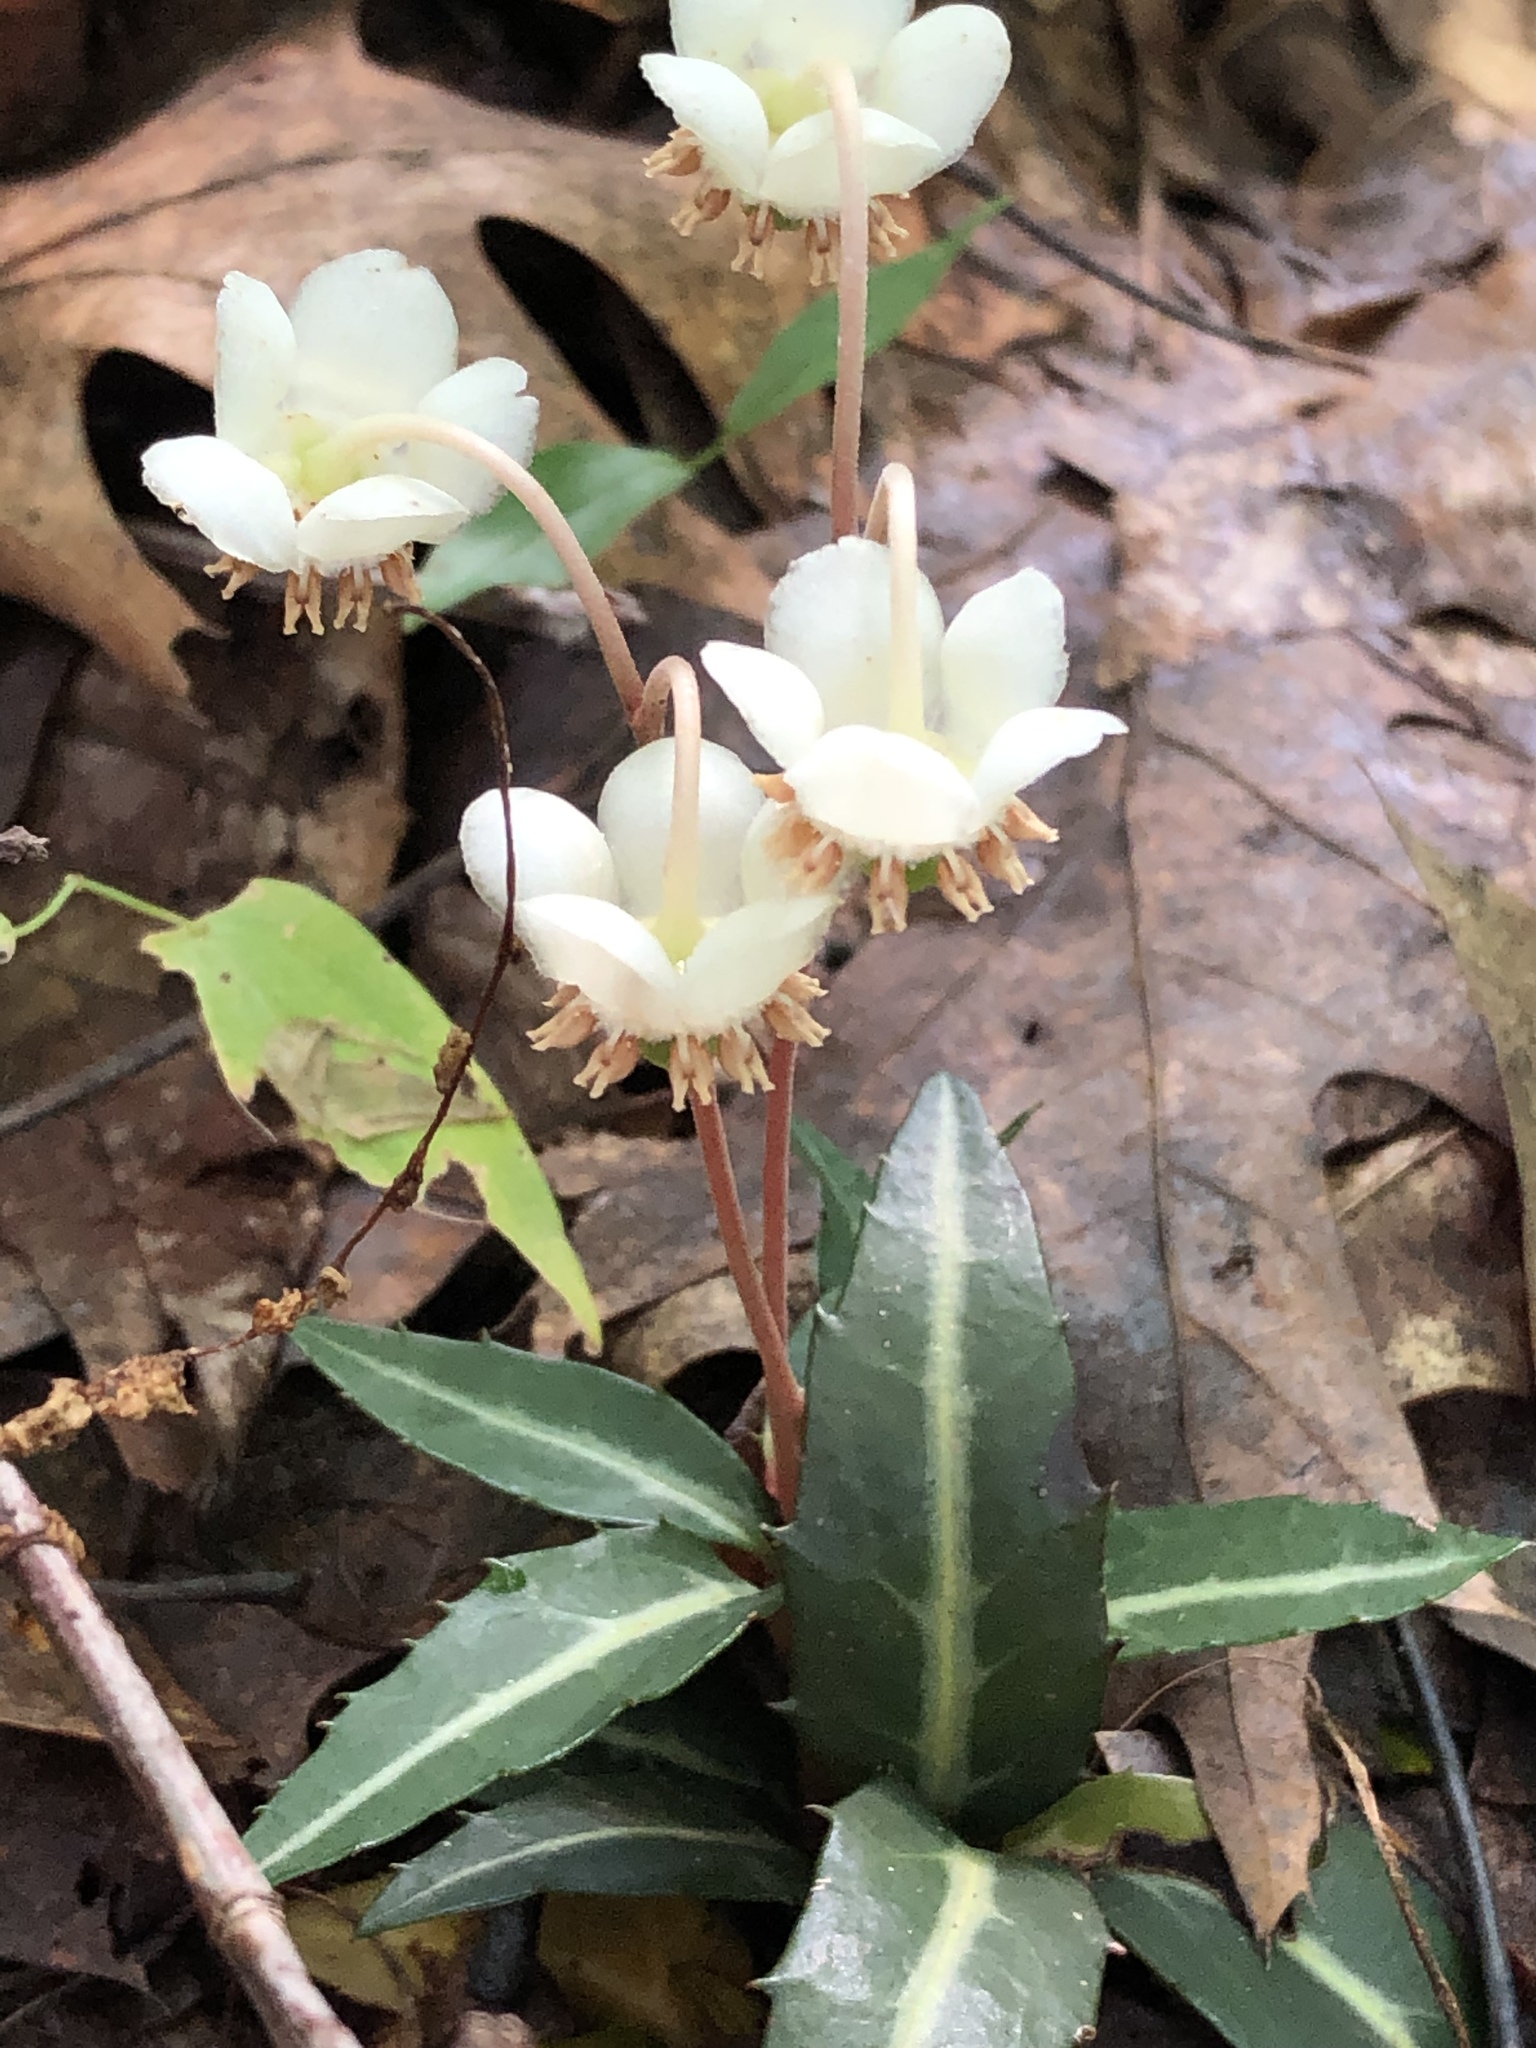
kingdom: Plantae
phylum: Tracheophyta
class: Magnoliopsida
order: Ericales
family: Ericaceae
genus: Chimaphila
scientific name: Chimaphila maculata
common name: Spotted pipsissewa
